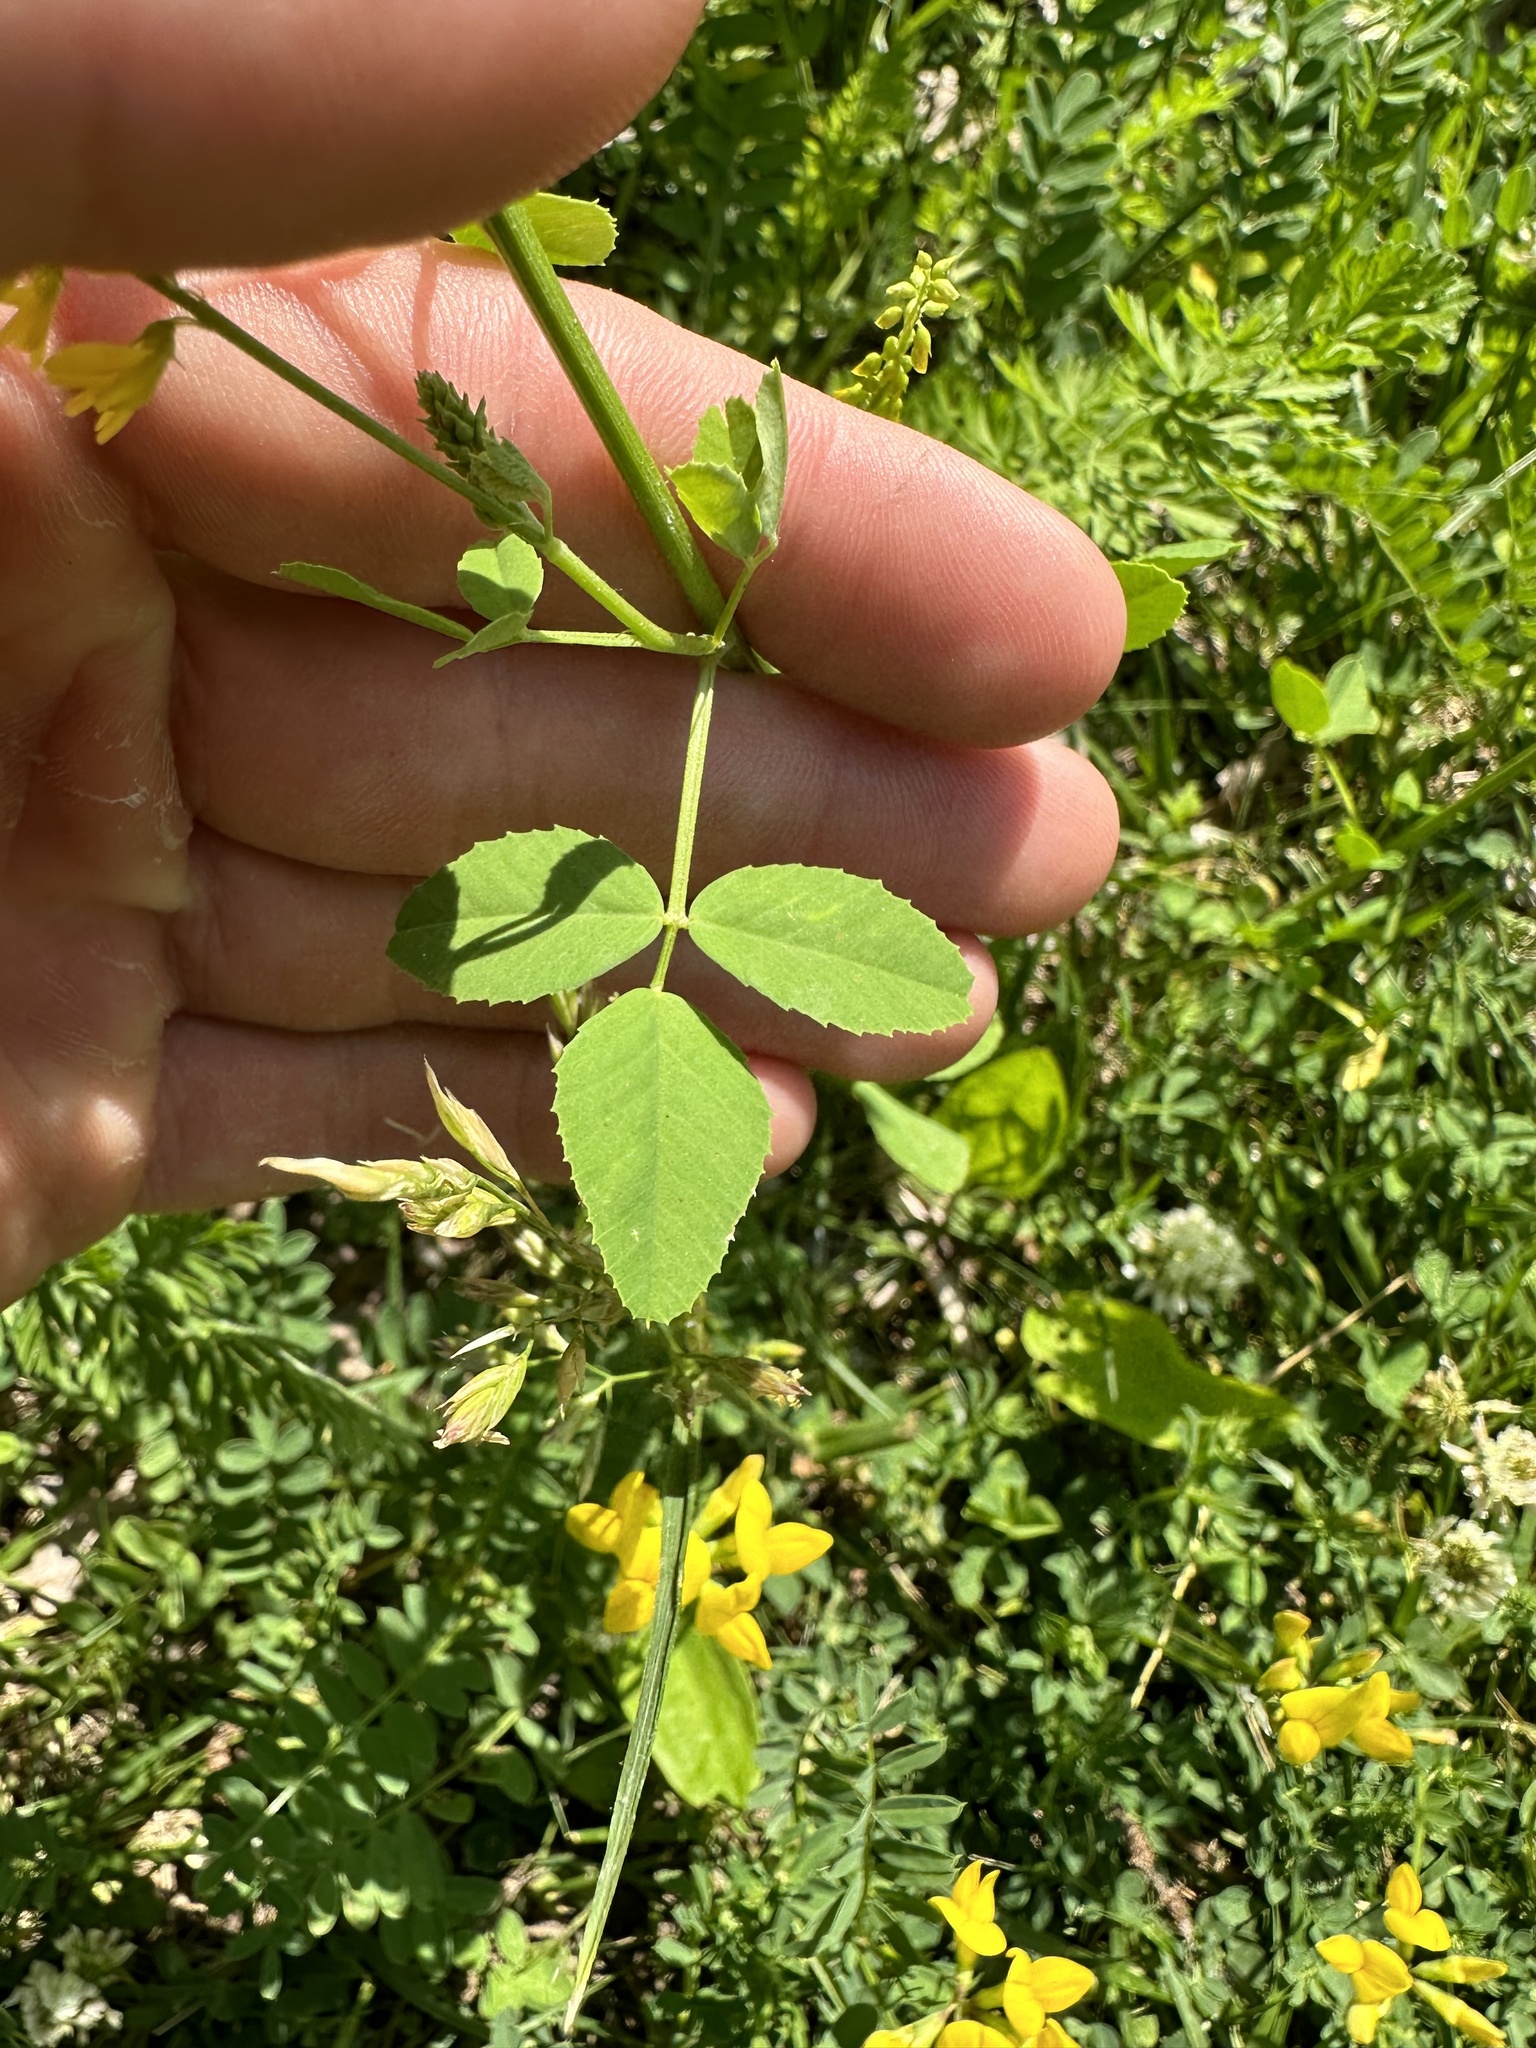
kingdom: Plantae
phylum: Tracheophyta
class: Magnoliopsida
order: Fabales
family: Fabaceae
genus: Melilotus
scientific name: Melilotus officinalis
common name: Sweetclover
